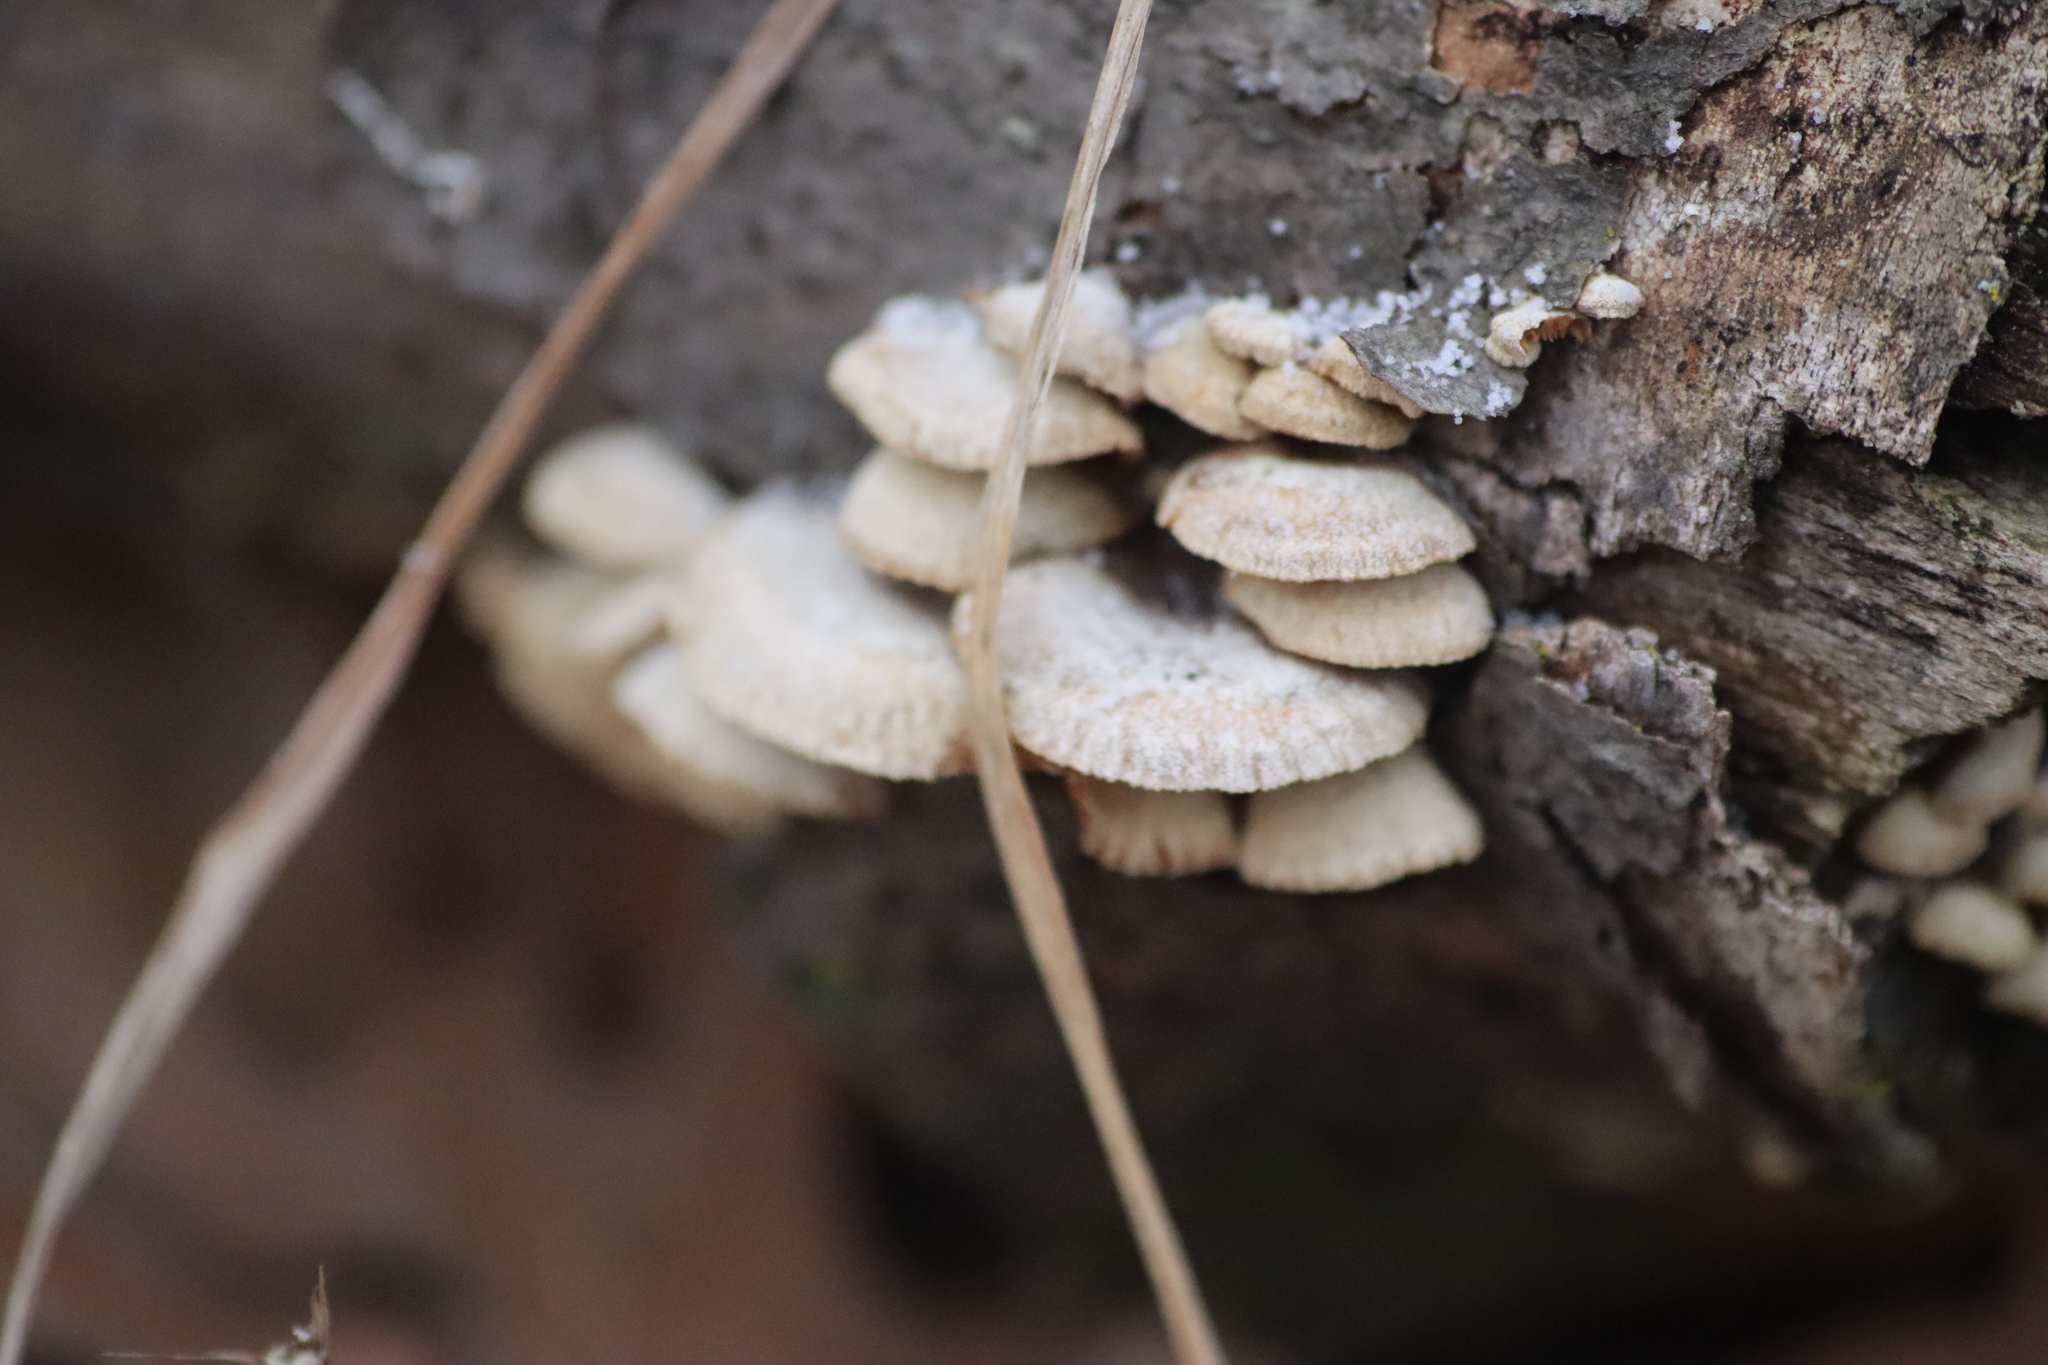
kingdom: Fungi
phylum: Basidiomycota
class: Agaricomycetes
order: Agaricales
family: Schizophyllaceae
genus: Schizophyllum
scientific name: Schizophyllum commune
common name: Common porecrust
